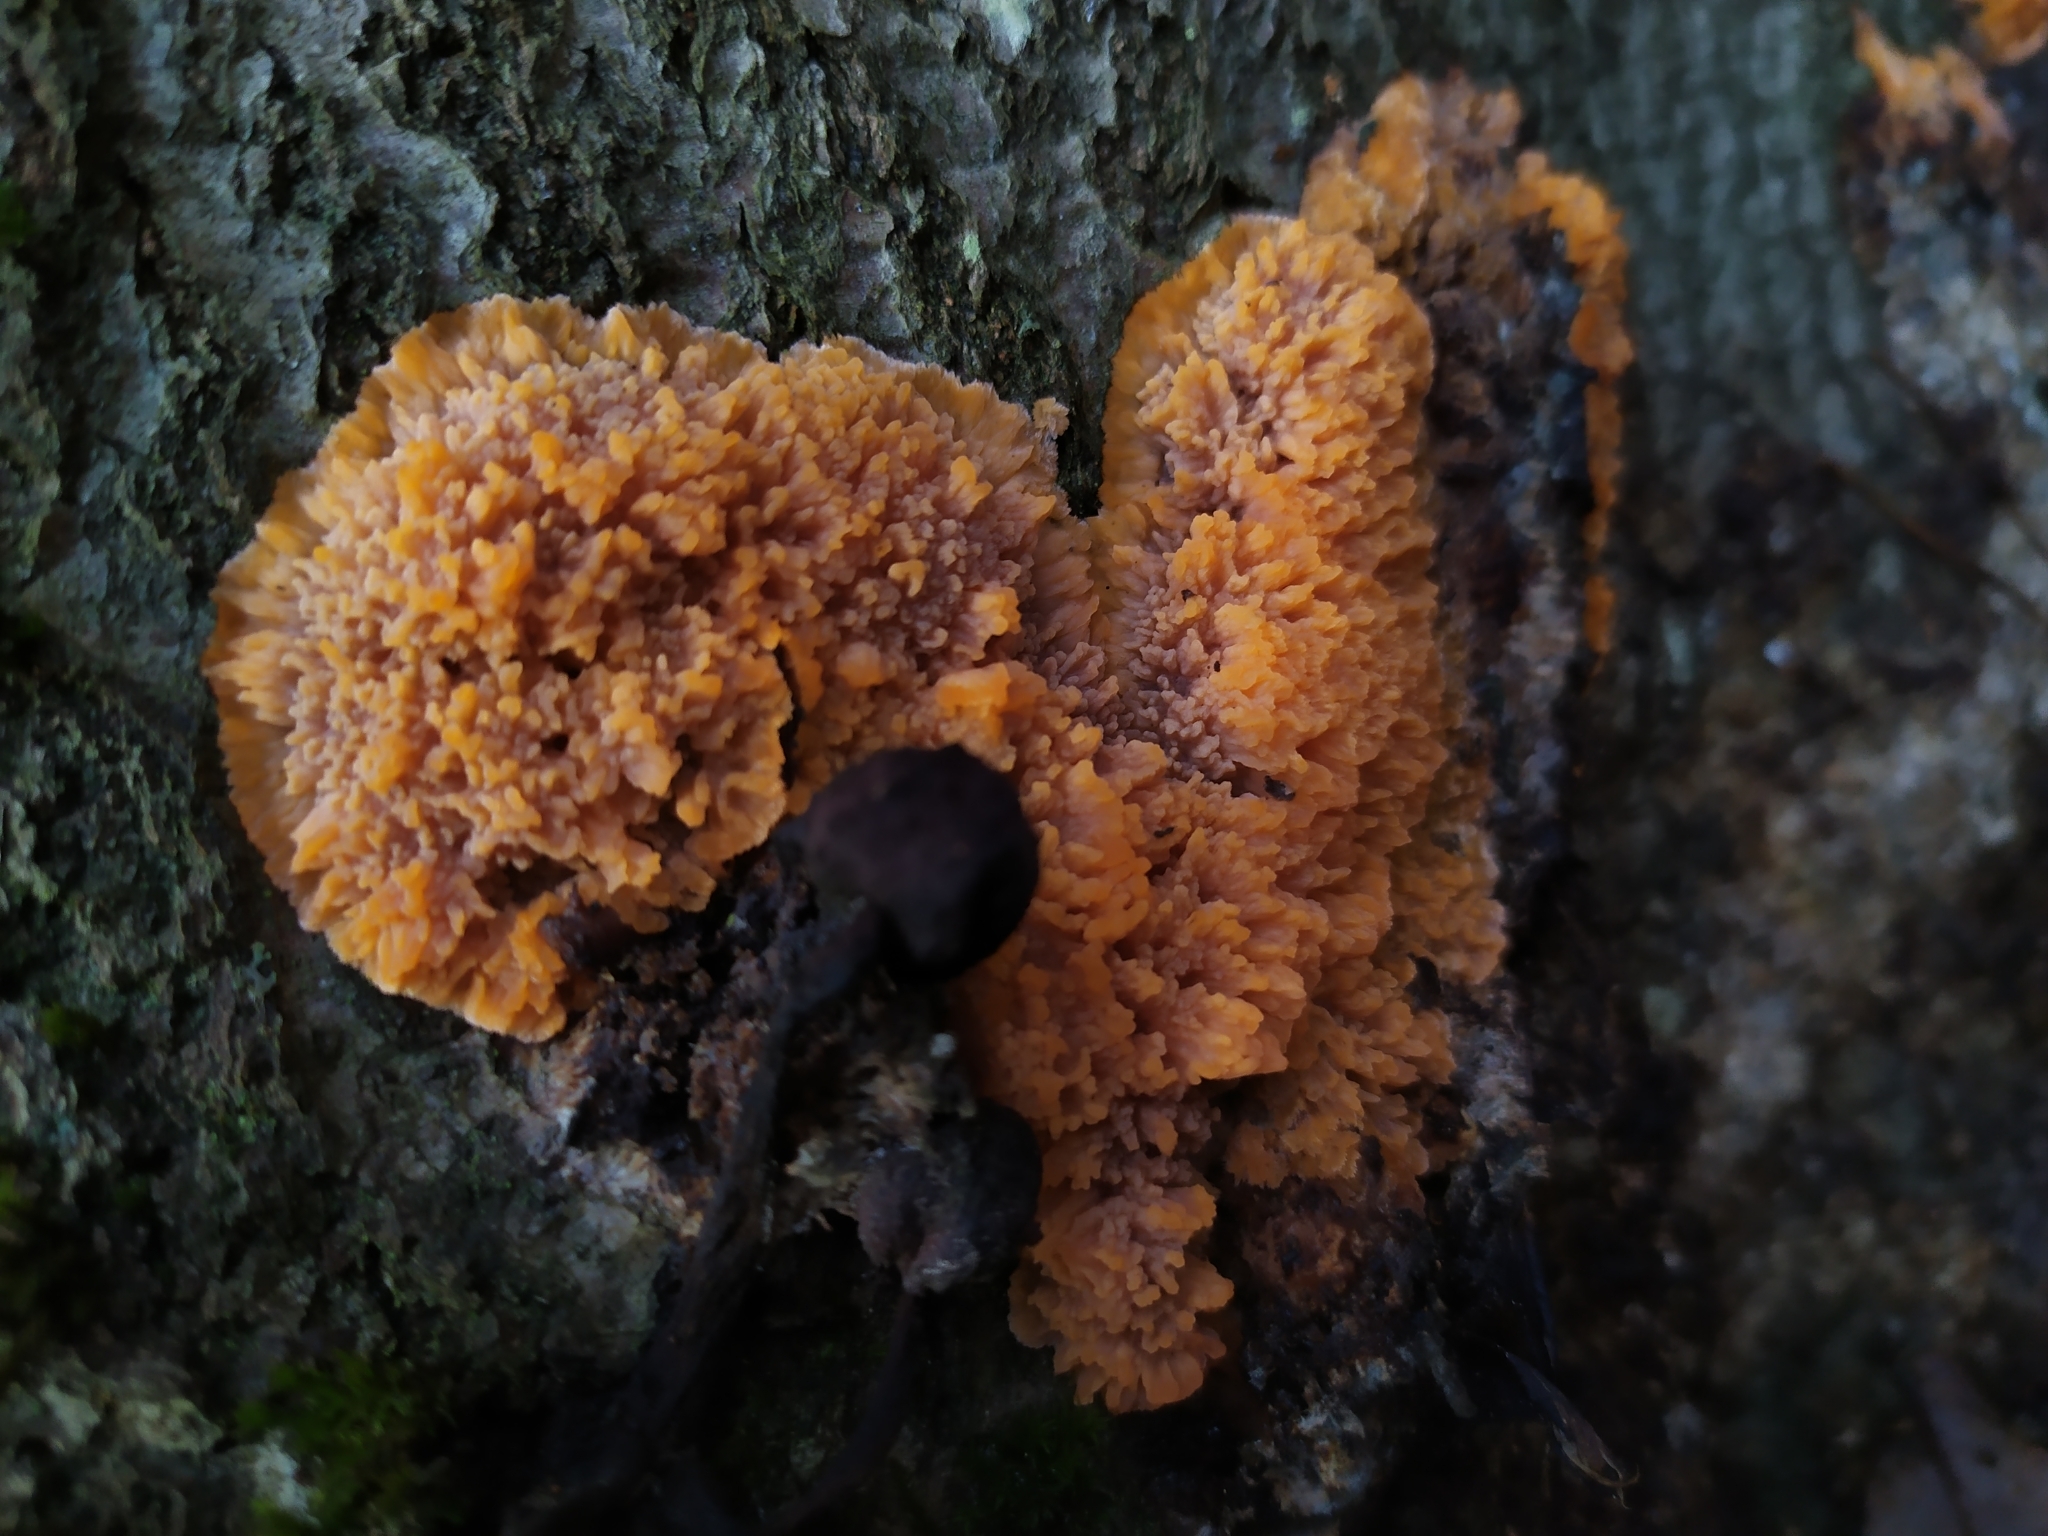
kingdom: Fungi
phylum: Basidiomycota
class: Agaricomycetes
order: Polyporales
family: Meruliaceae
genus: Phlebia
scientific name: Phlebia radiata
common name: Wrinkled crust
